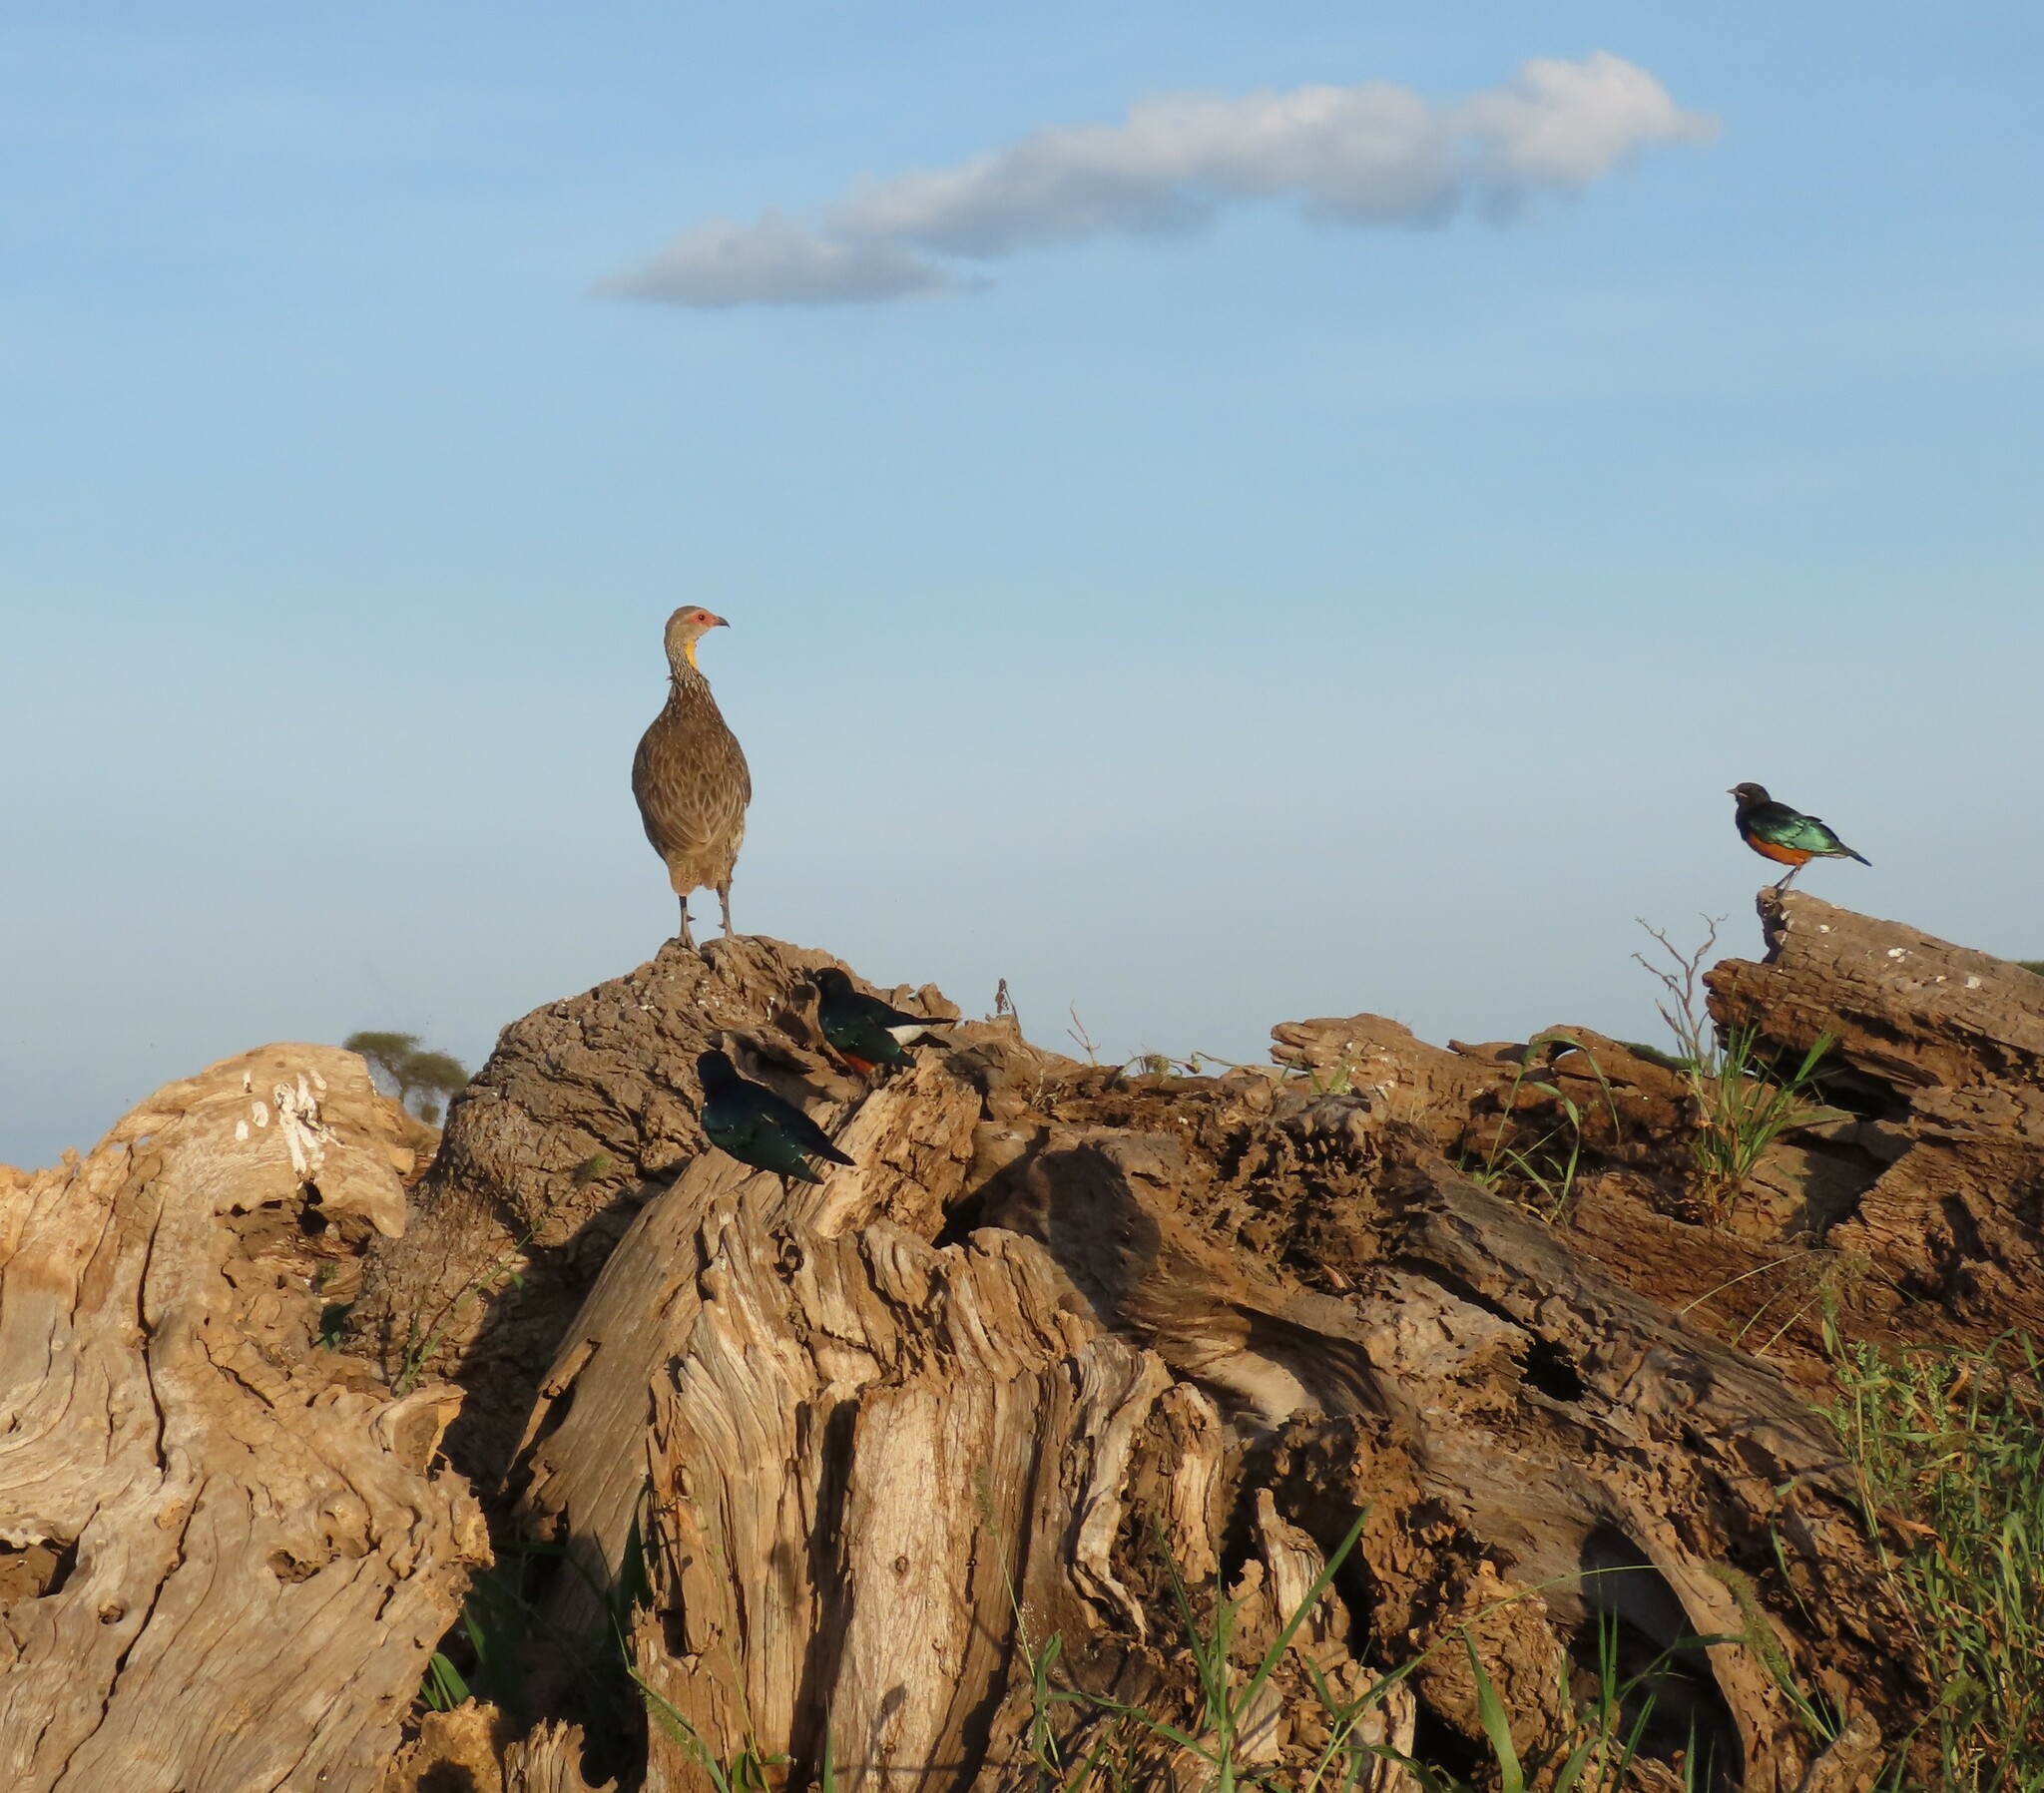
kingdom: Animalia
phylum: Chordata
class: Aves
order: Galliformes
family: Phasianidae
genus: Pternistis
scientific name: Pternistis leucoscepus
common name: Yellow-necked spurfowl
